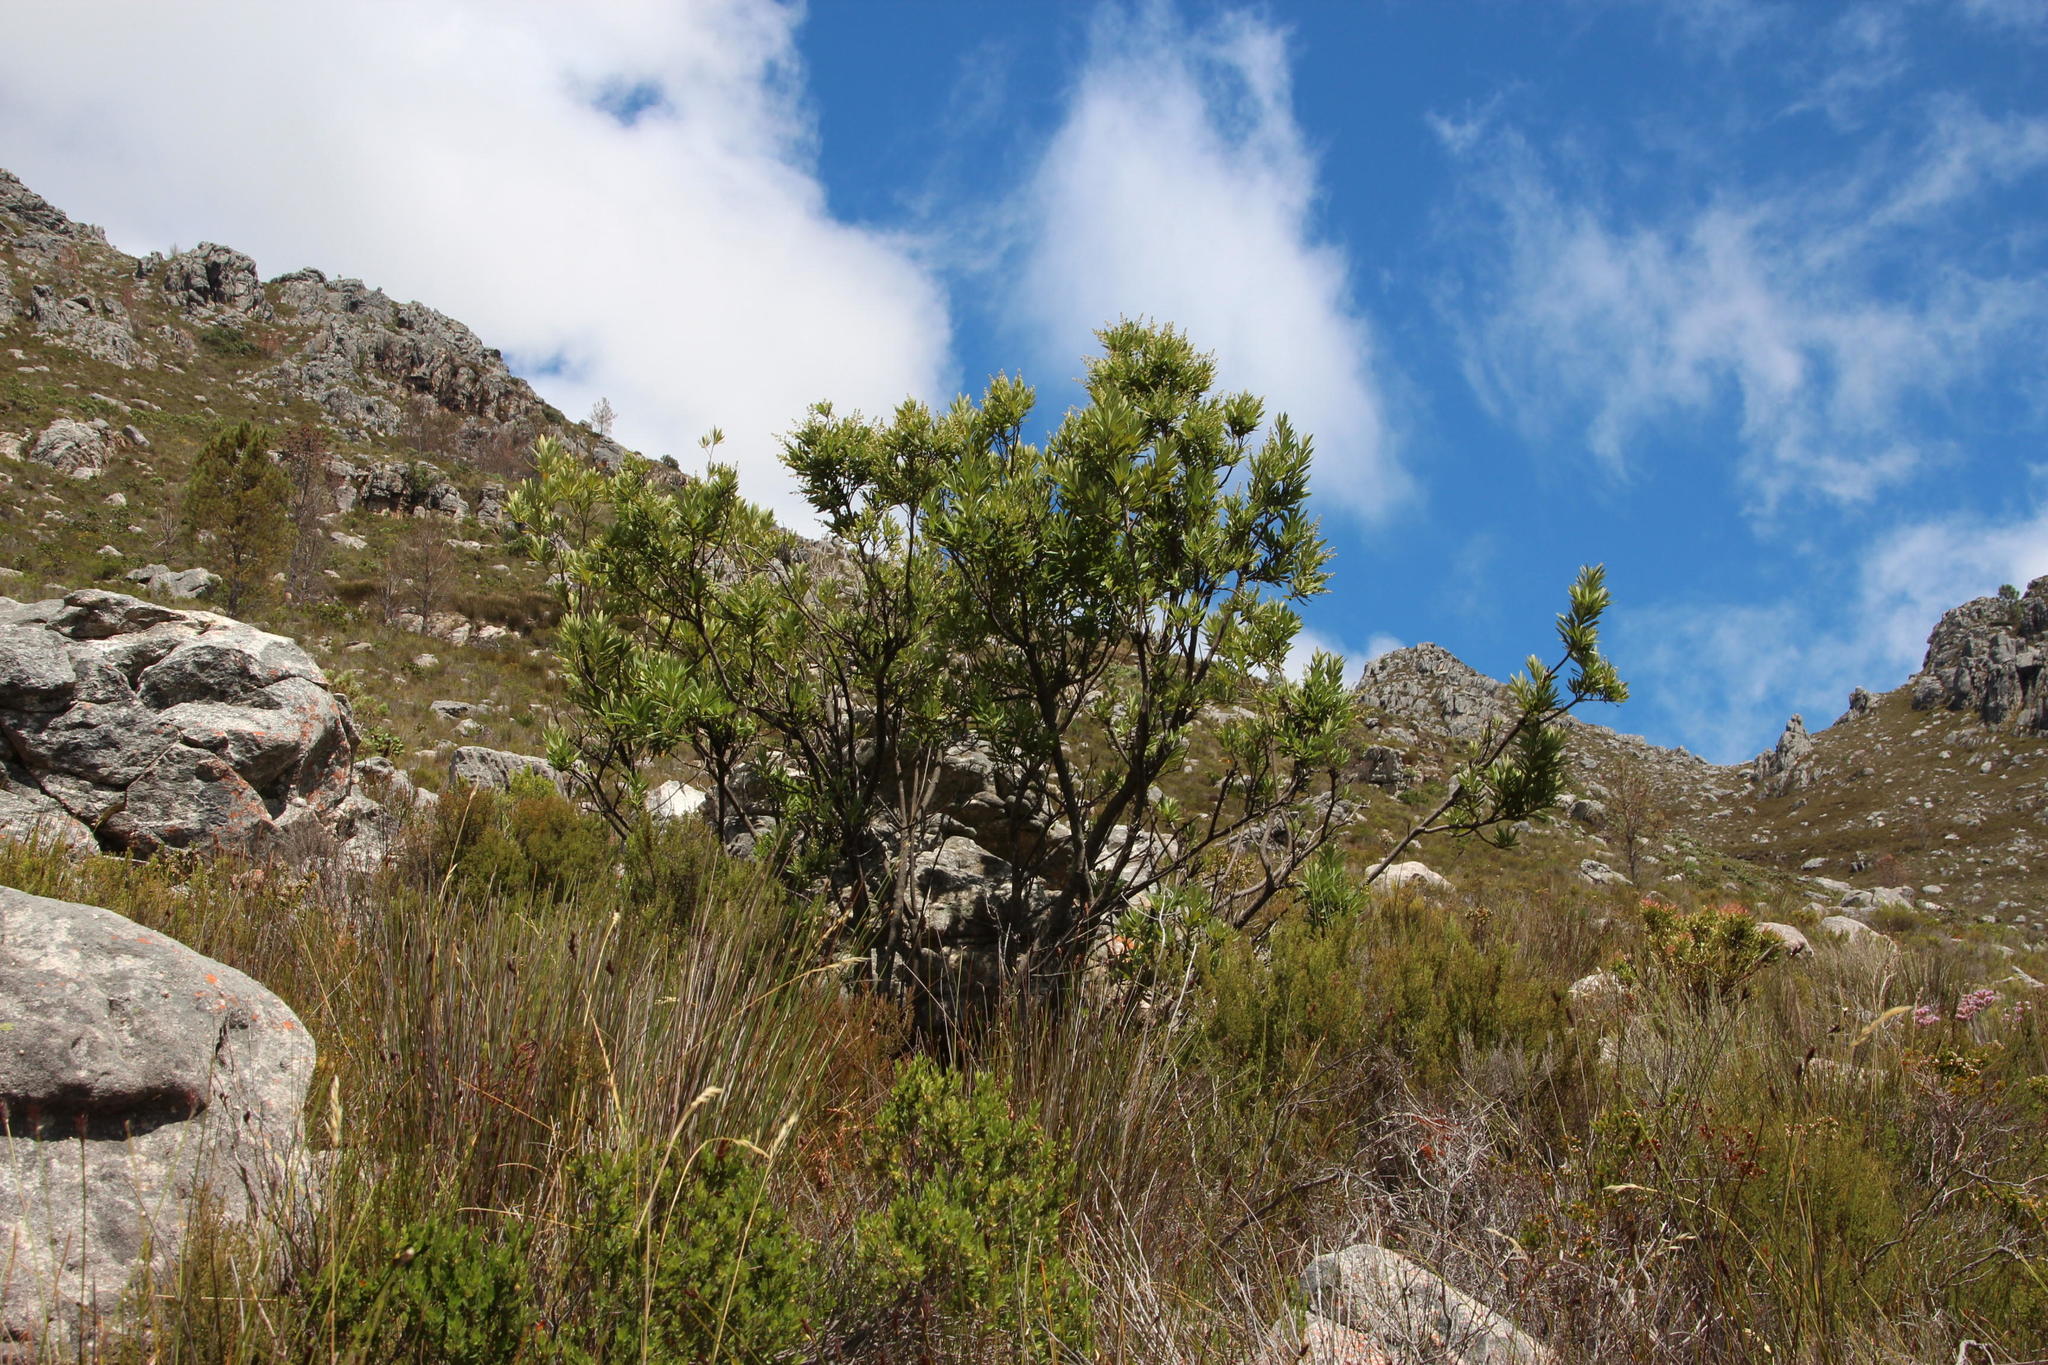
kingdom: Plantae
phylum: Tracheophyta
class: Magnoliopsida
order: Asterales
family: Asteraceae
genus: Brachylaena
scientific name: Brachylaena neriifolia
